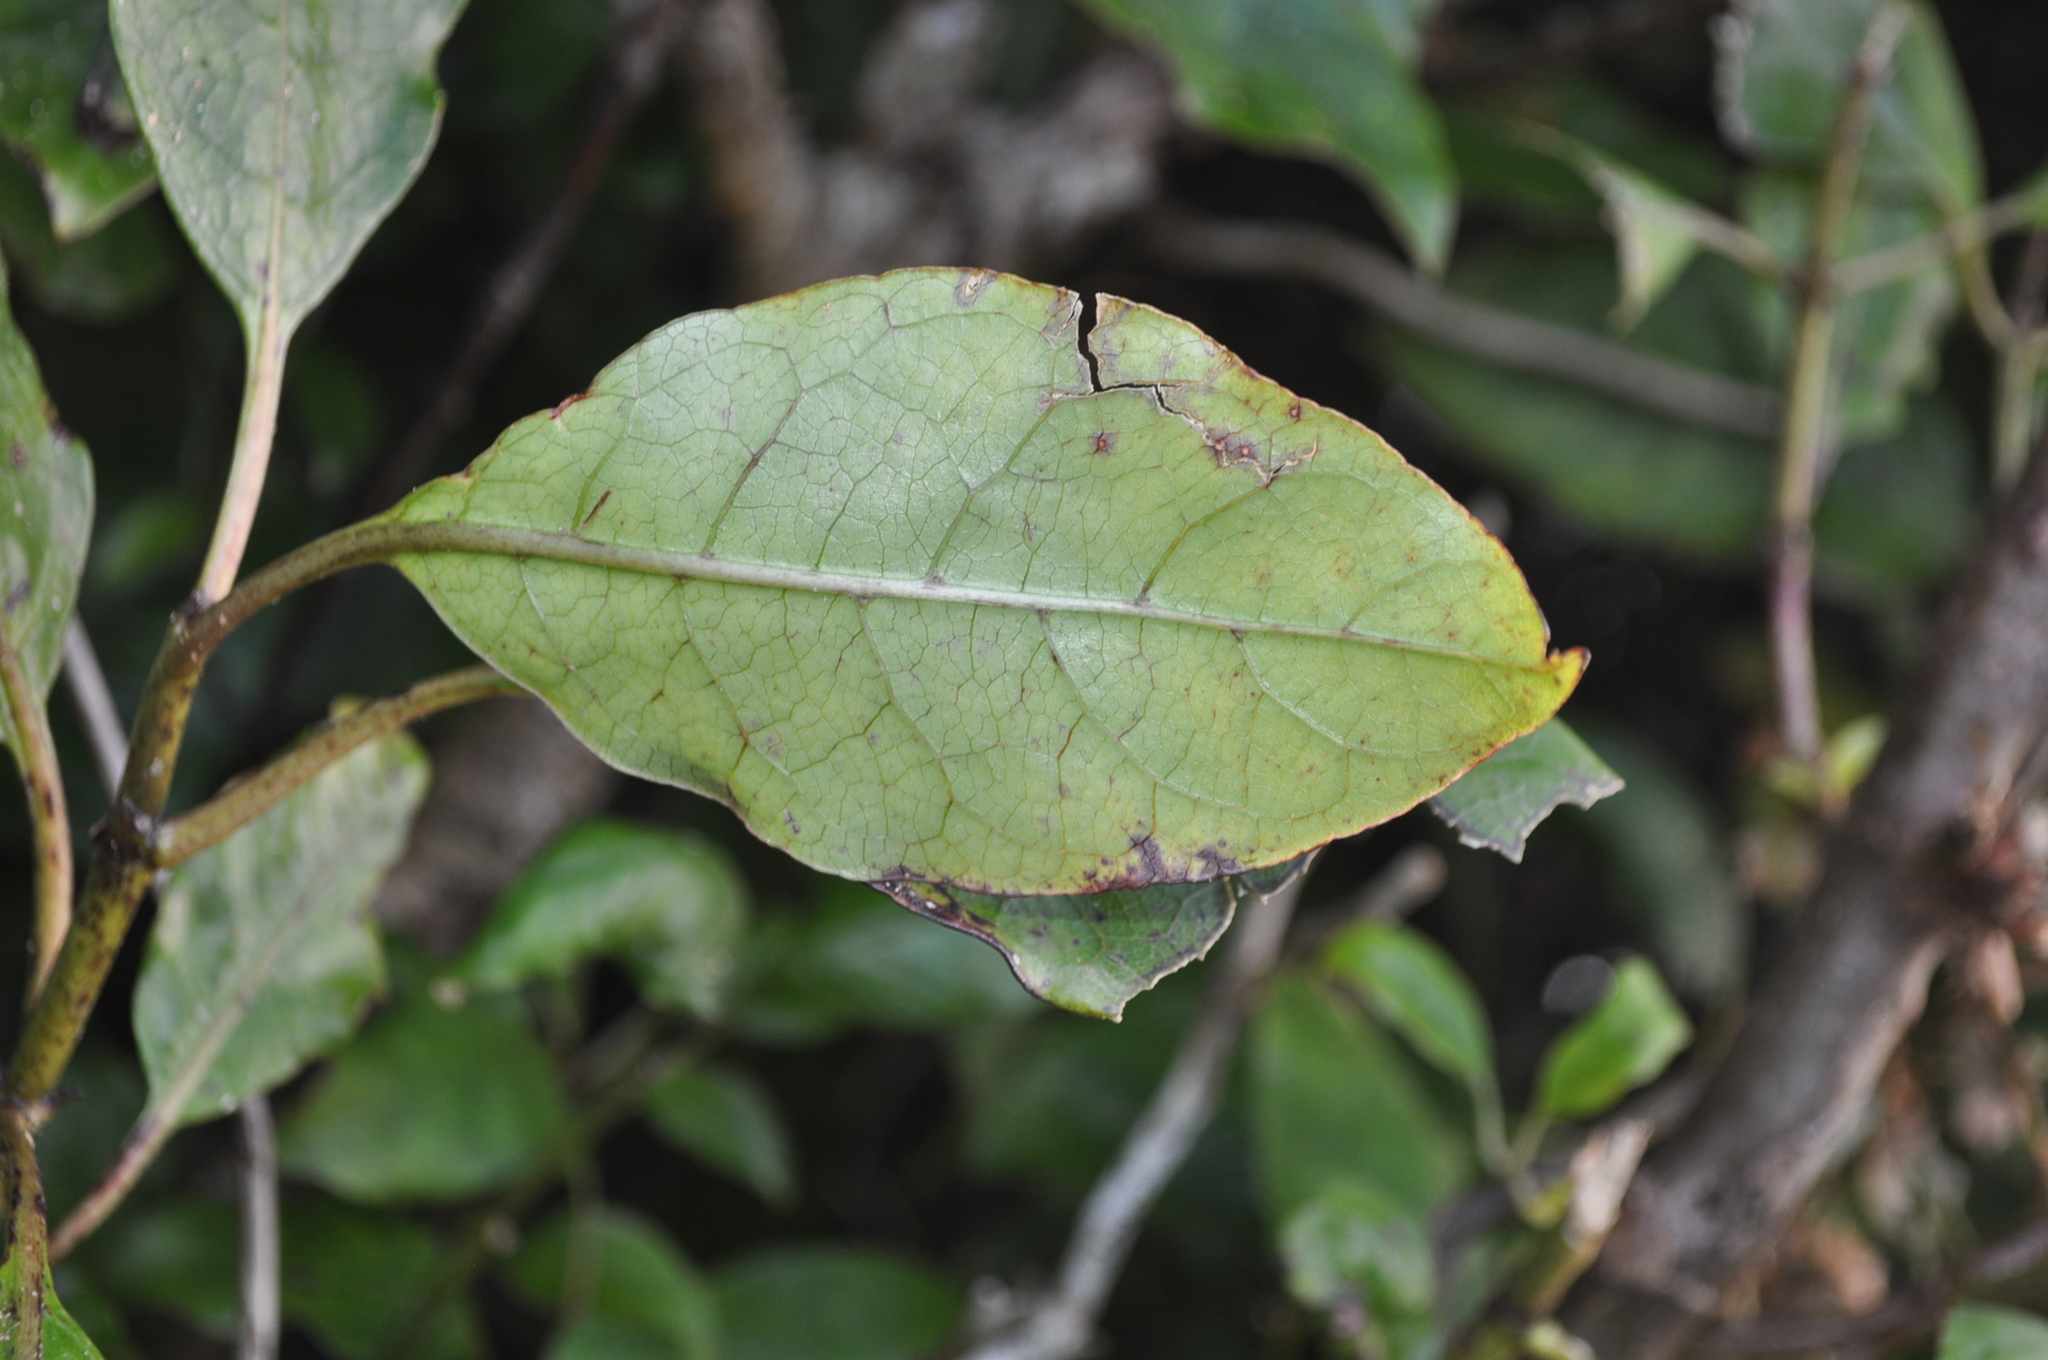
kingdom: Plantae
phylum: Tracheophyta
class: Magnoliopsida
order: Gentianales
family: Rubiaceae
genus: Coprosma
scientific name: Coprosma autumnalis
